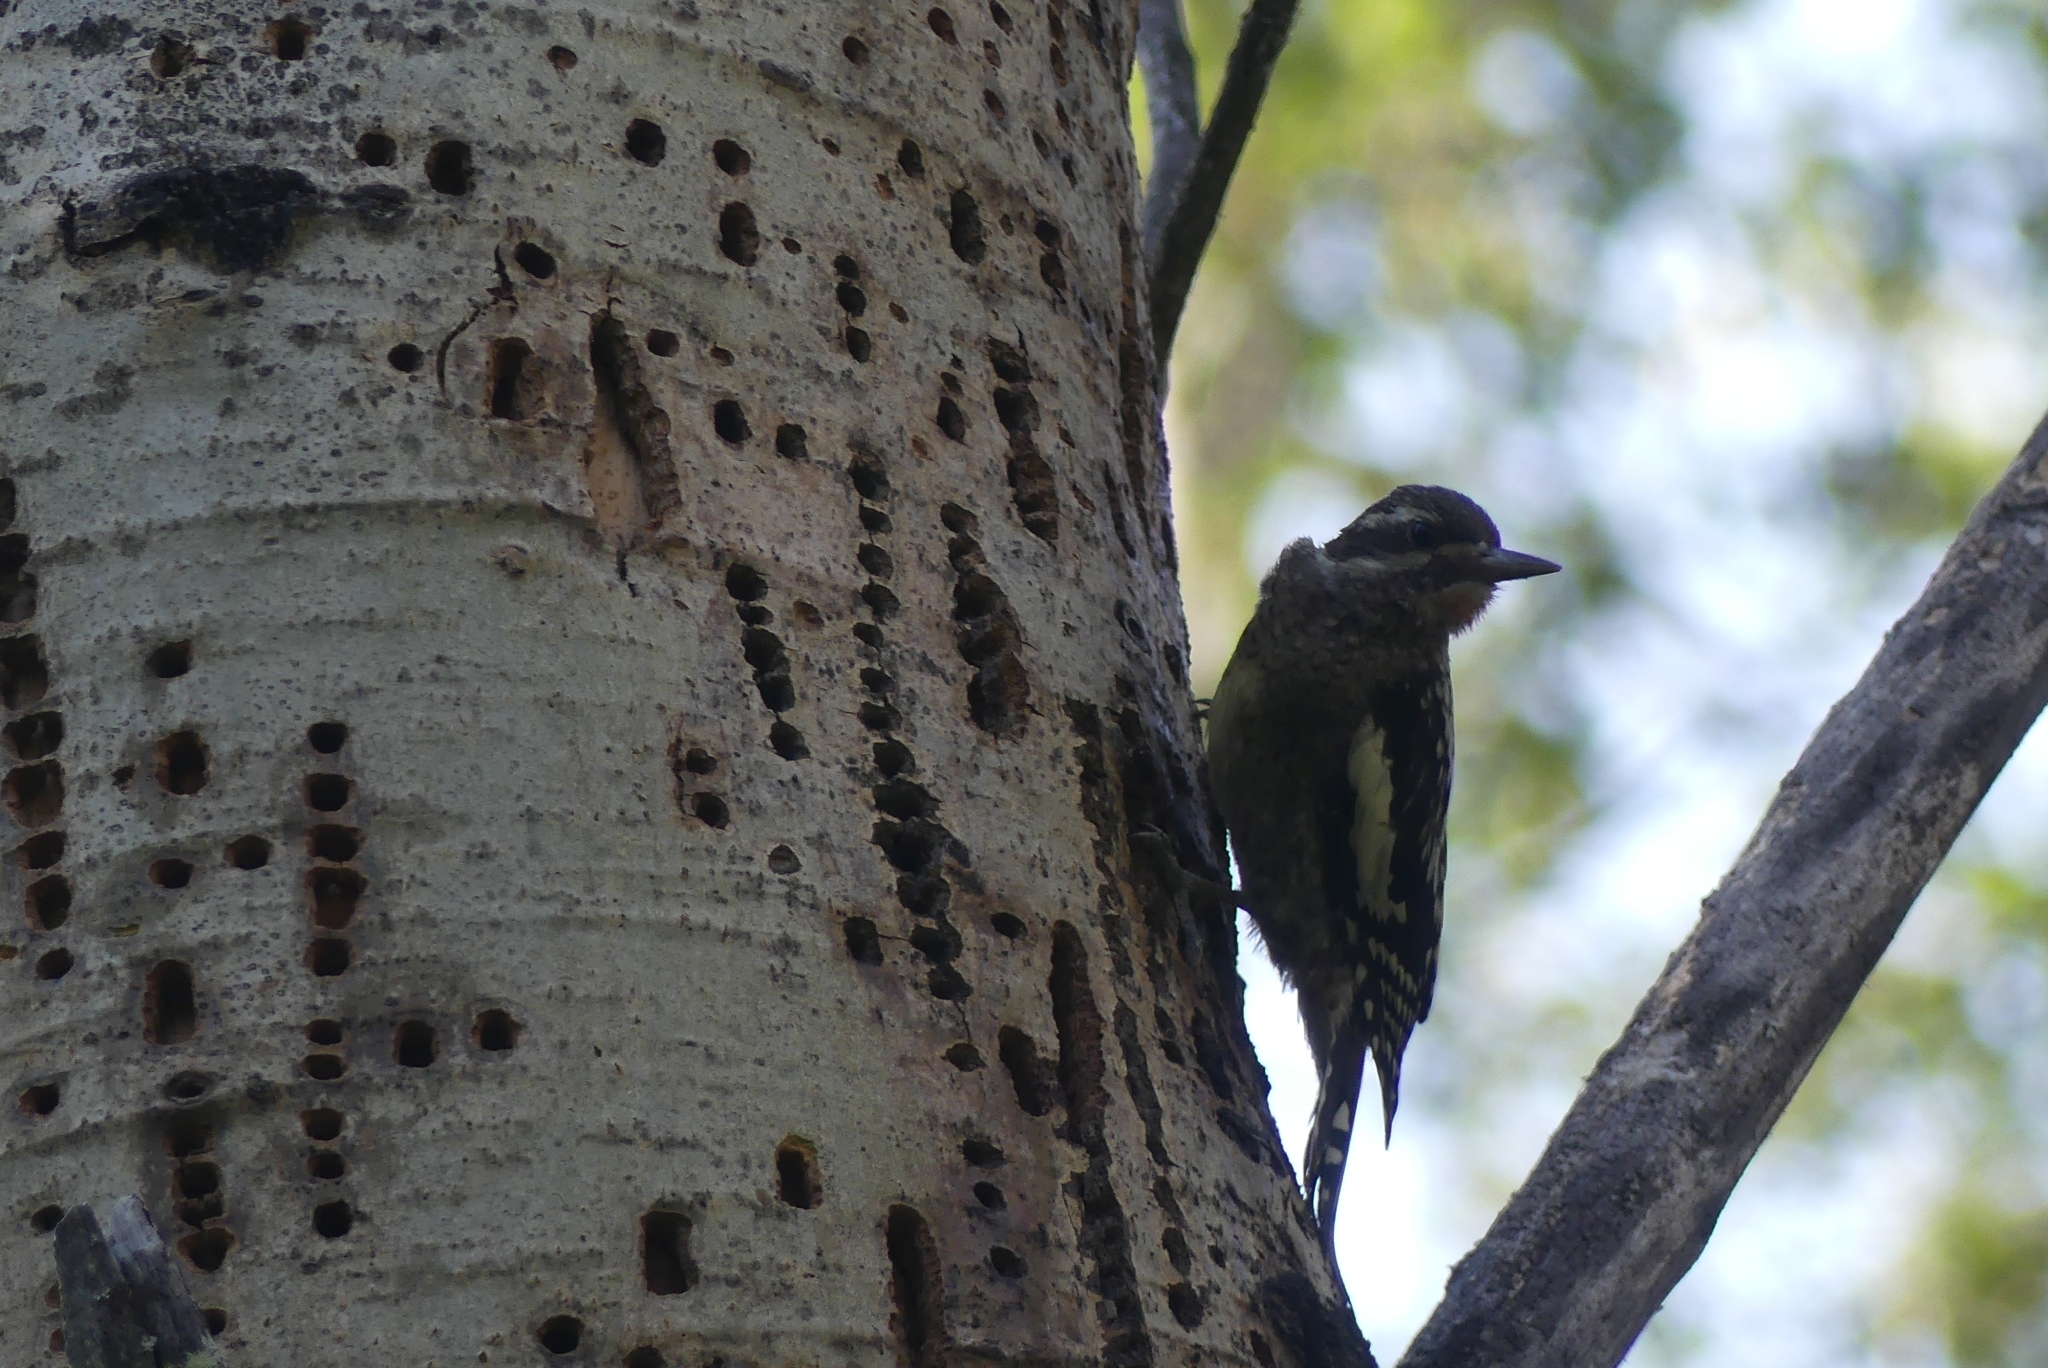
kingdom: Animalia
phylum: Chordata
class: Aves
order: Piciformes
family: Picidae
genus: Sphyrapicus
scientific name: Sphyrapicus varius
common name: Yellow-bellied sapsucker
